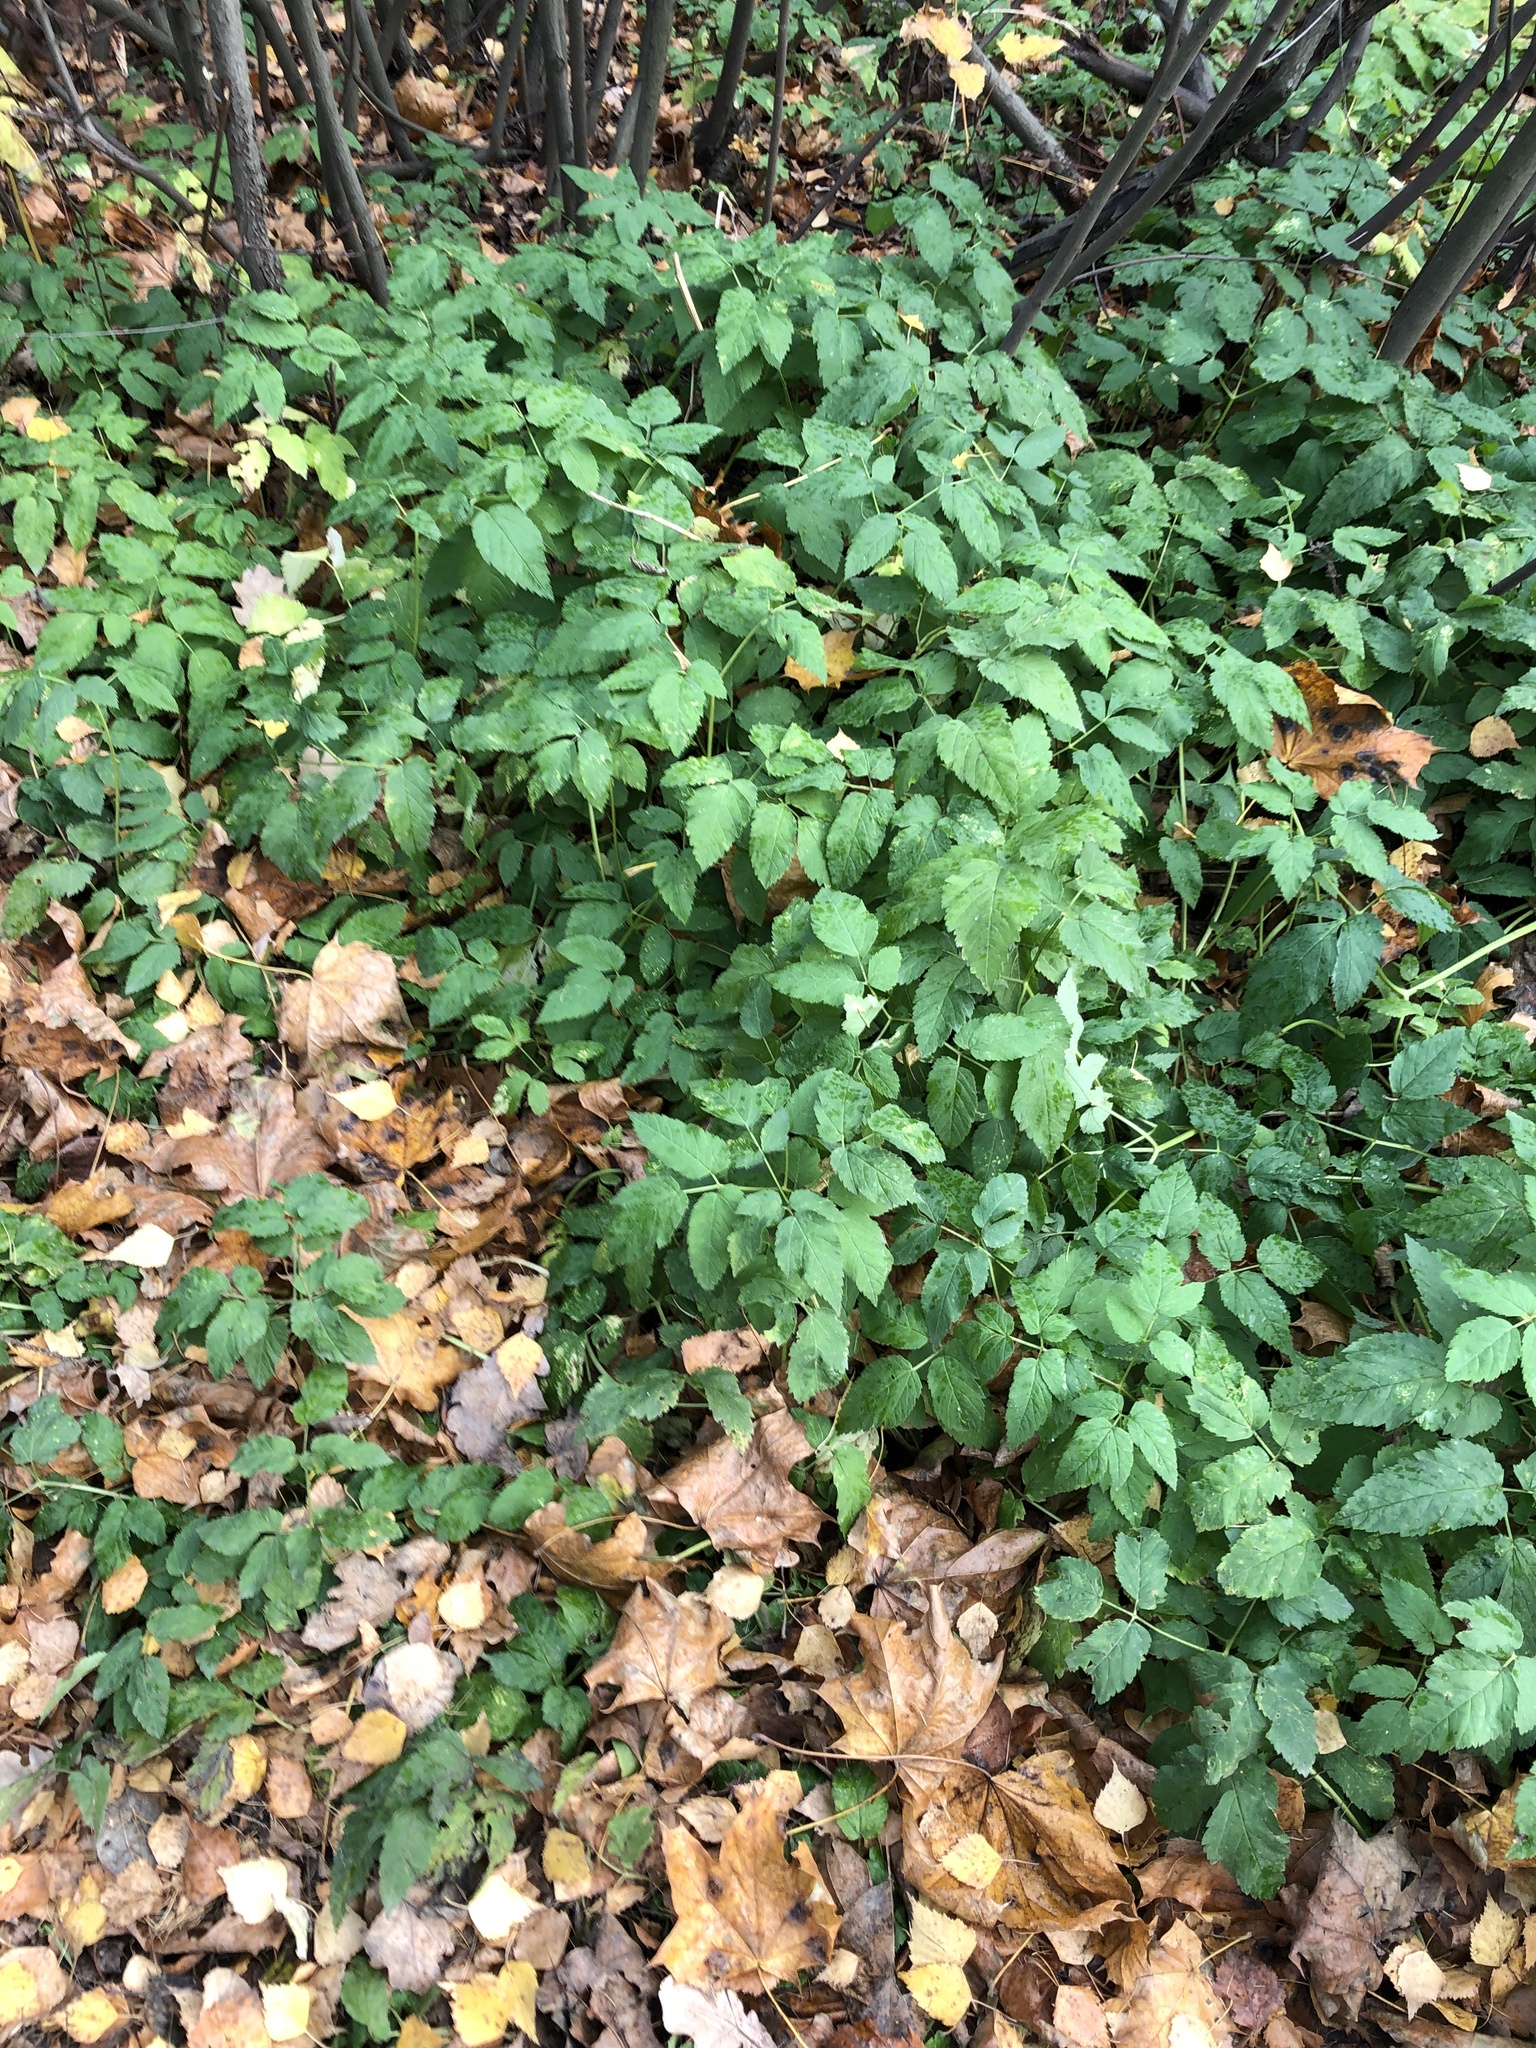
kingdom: Plantae
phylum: Tracheophyta
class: Magnoliopsida
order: Apiales
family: Apiaceae
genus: Aegopodium
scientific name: Aegopodium podagraria
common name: Ground-elder
